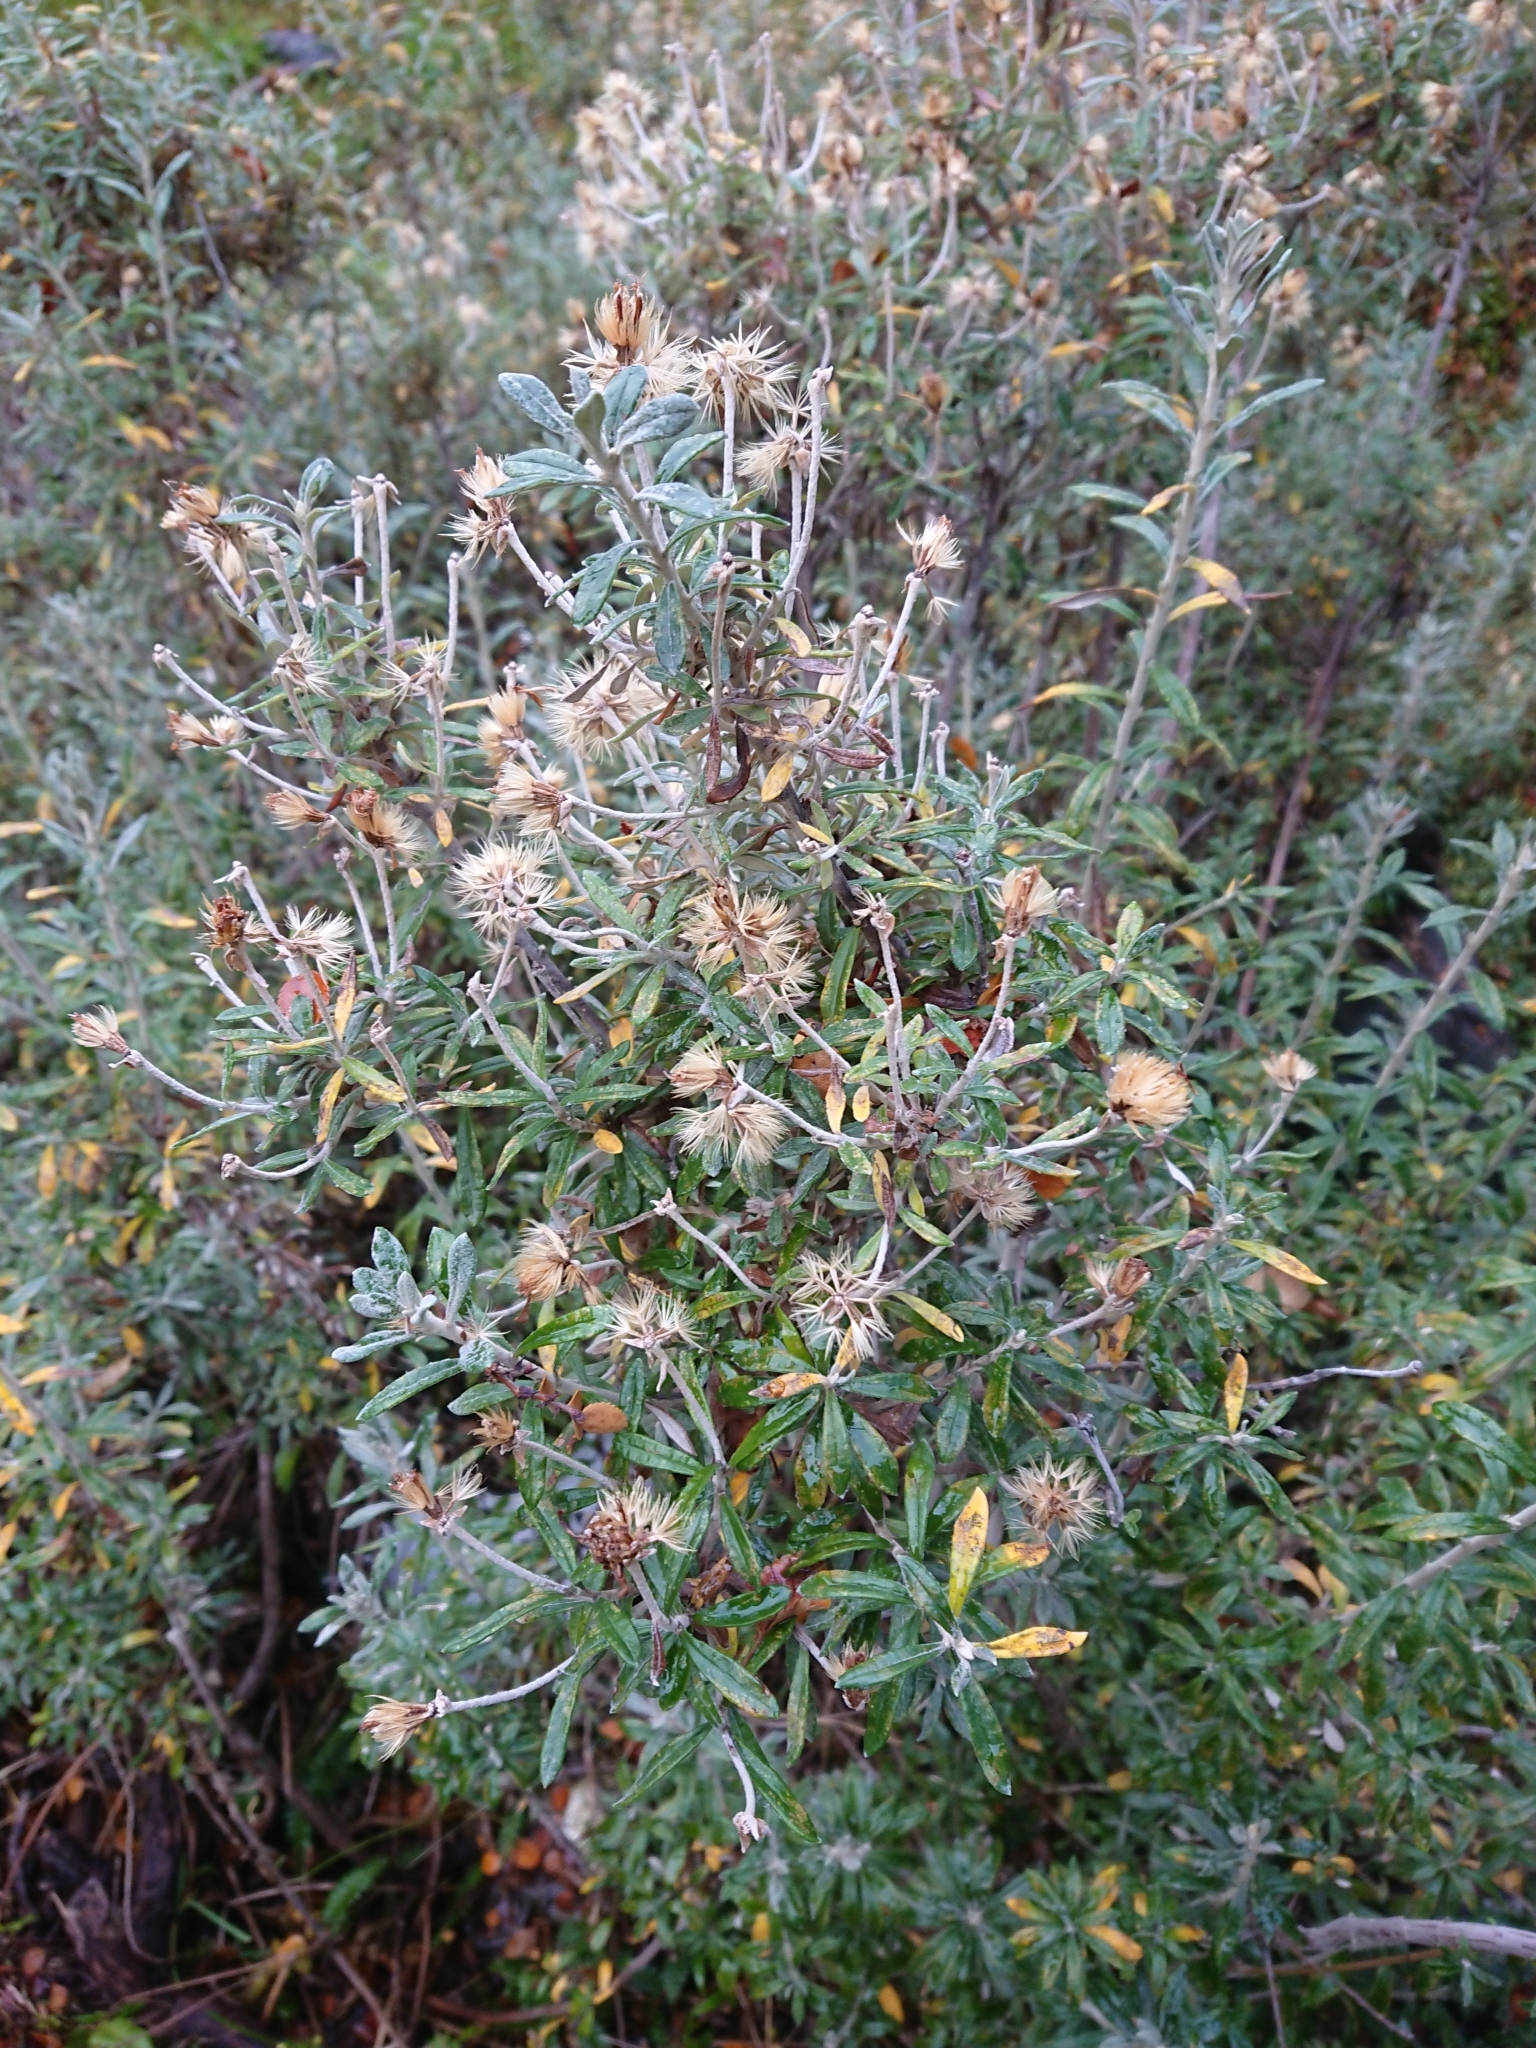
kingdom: Plantae
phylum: Tracheophyta
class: Magnoliopsida
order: Asterales
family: Asteraceae
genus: Chiliotrichum
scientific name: Chiliotrichum diffusum
